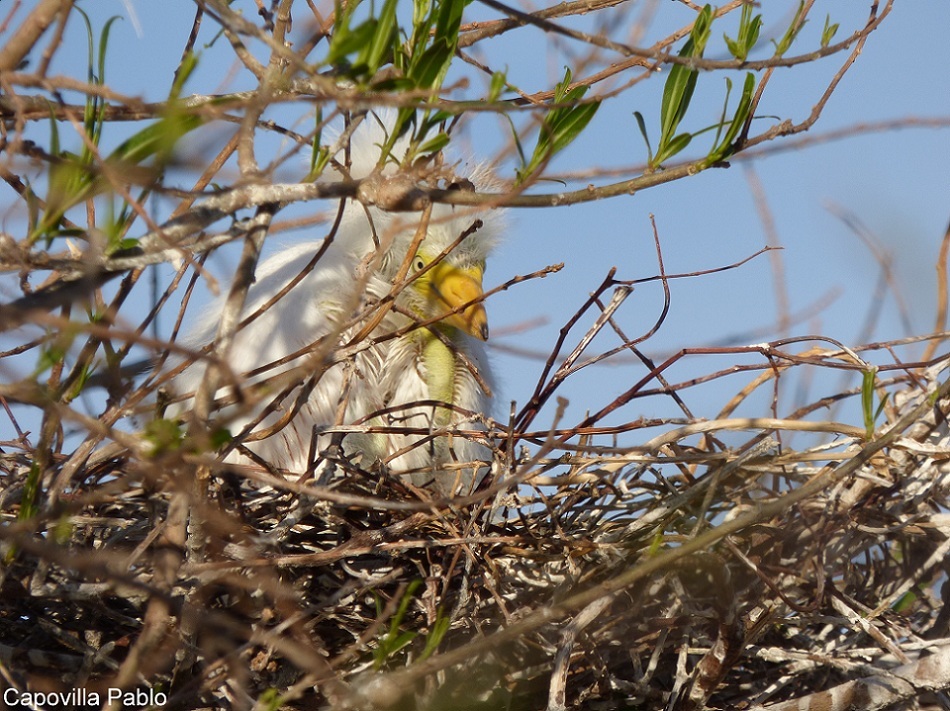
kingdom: Animalia
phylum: Chordata
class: Aves
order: Pelecaniformes
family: Ardeidae
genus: Ardea
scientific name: Ardea alba
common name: Great egret
